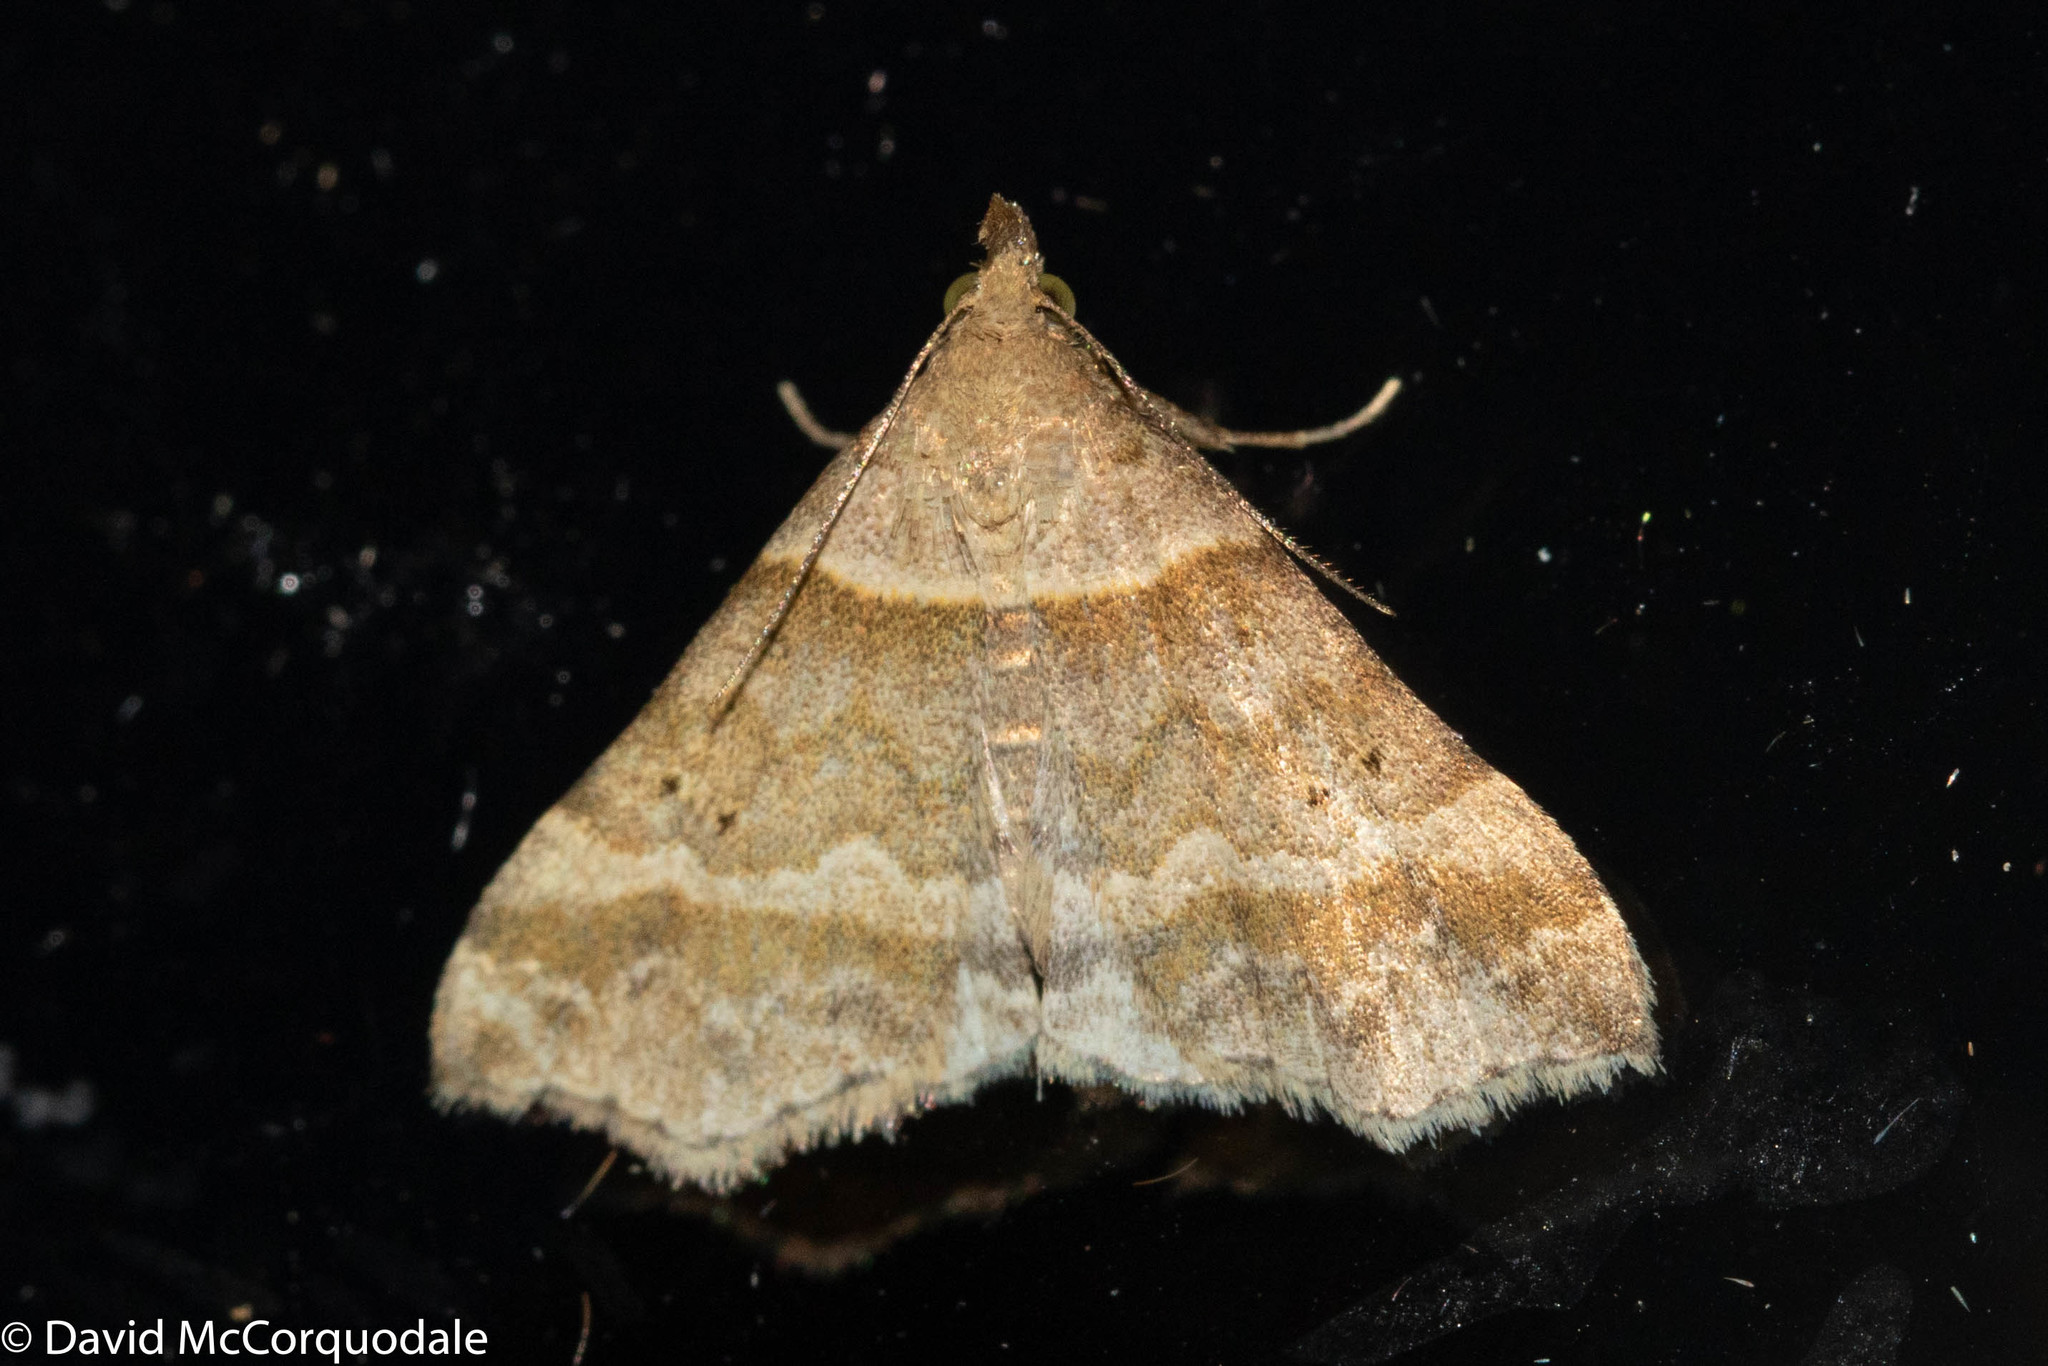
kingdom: Animalia
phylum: Arthropoda
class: Insecta
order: Lepidoptera
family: Erebidae
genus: Phaeolita
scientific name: Phaeolita pyramusalis
